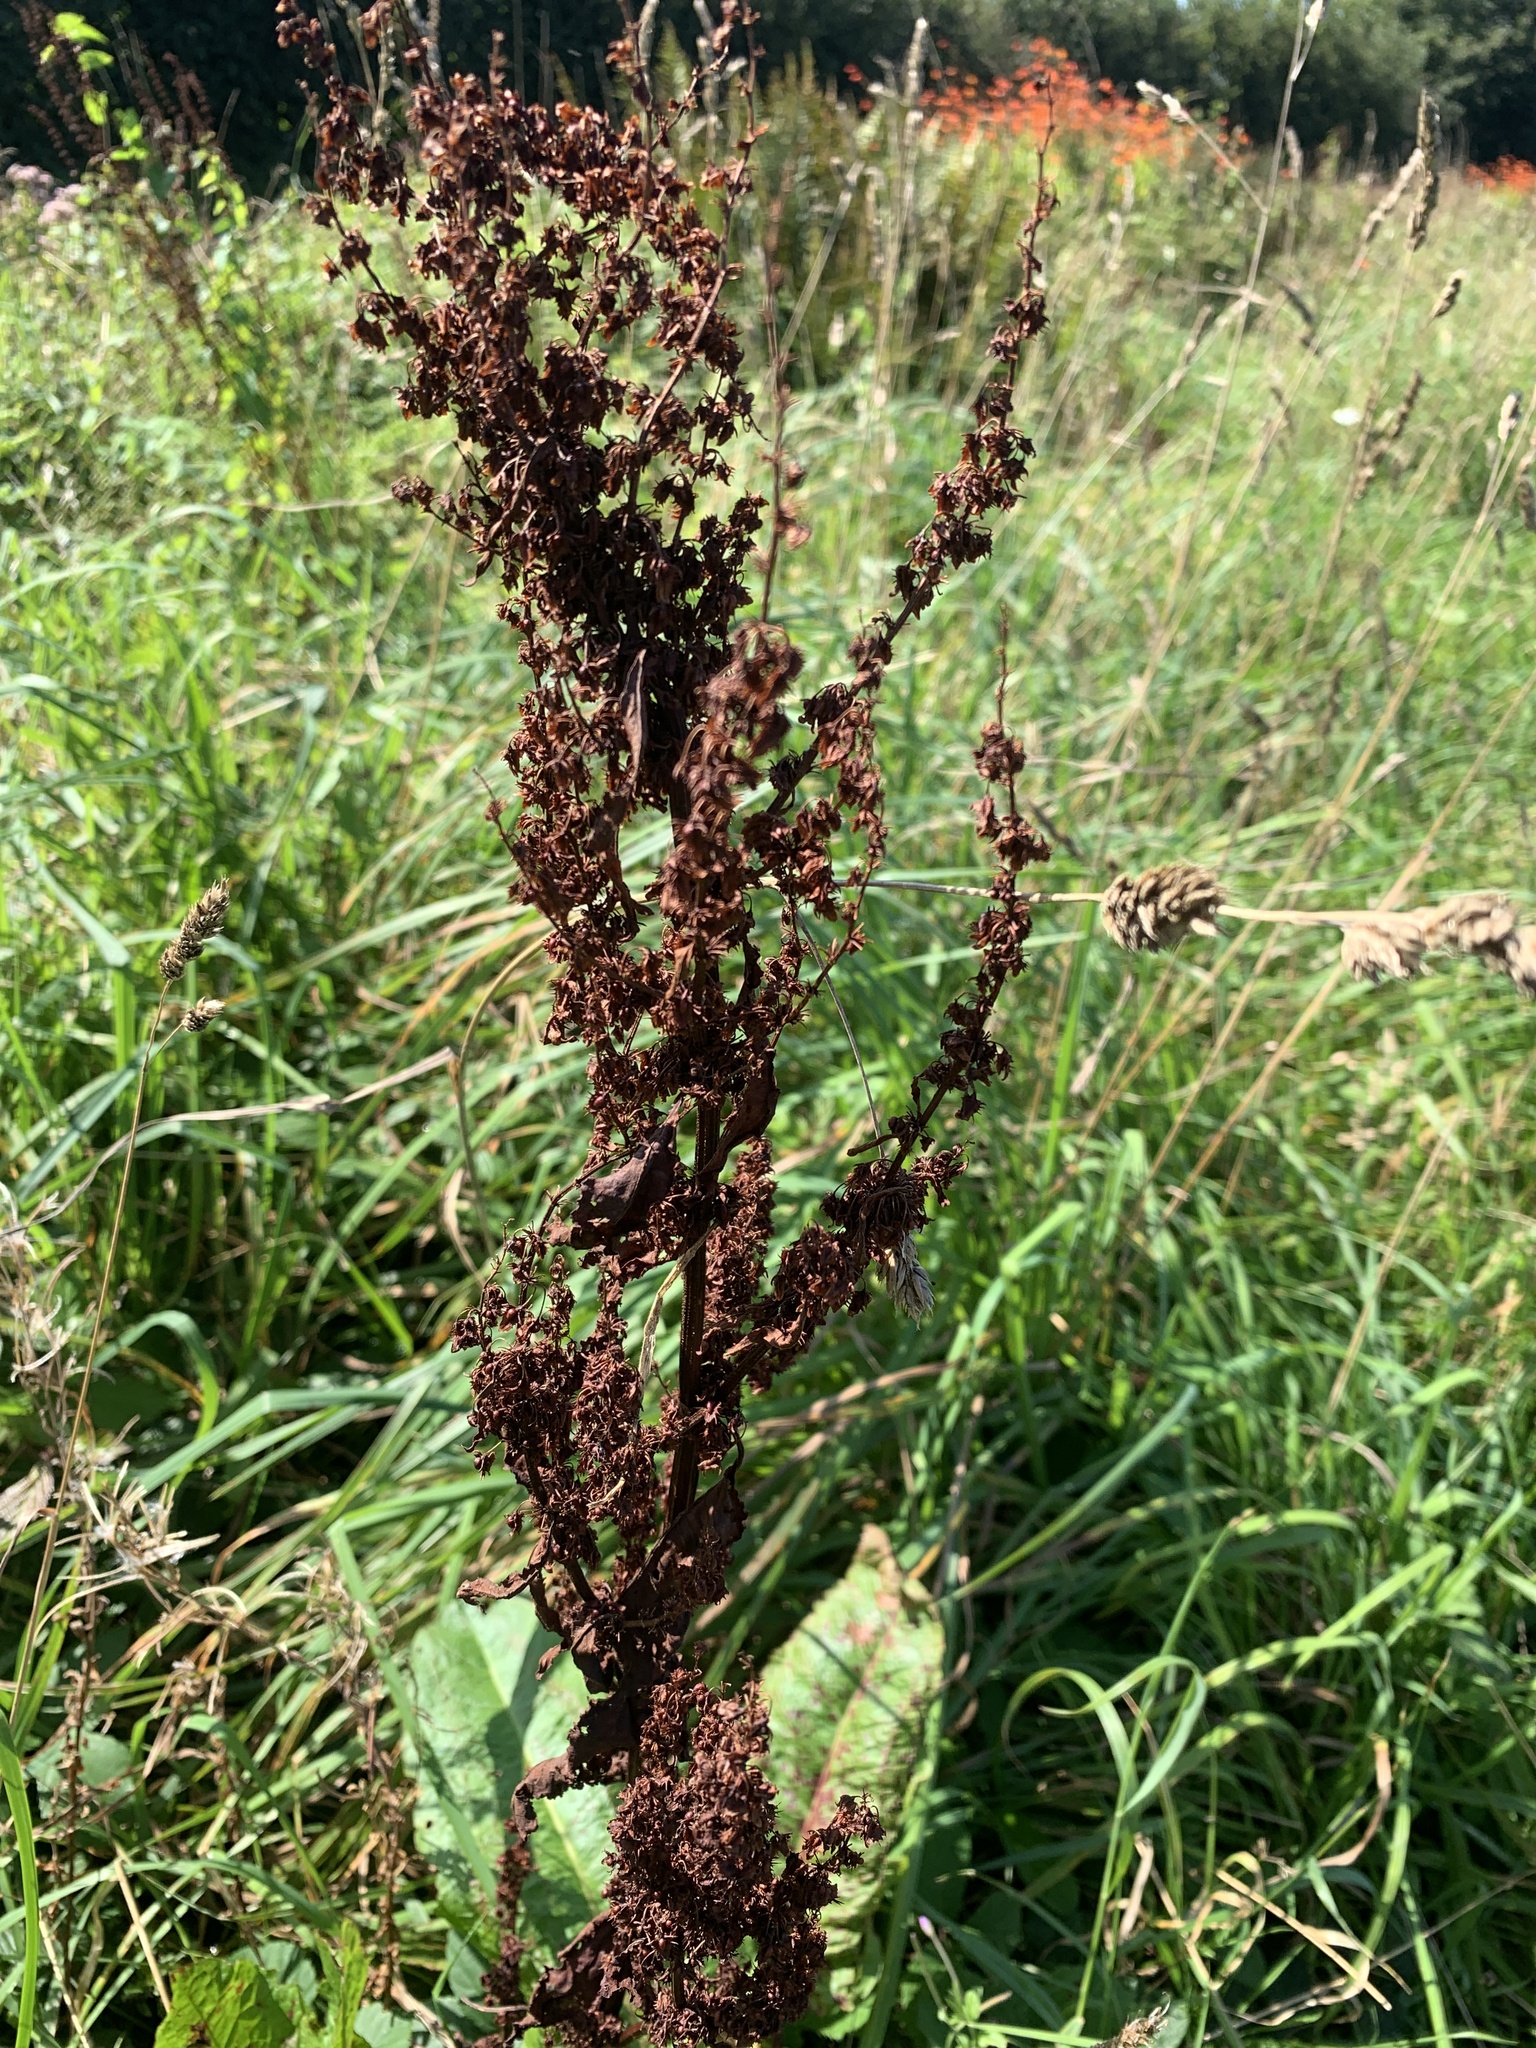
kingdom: Plantae
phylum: Tracheophyta
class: Magnoliopsida
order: Caryophyllales
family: Polygonaceae
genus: Rumex
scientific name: Rumex obtusifolius
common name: Bitter dock
